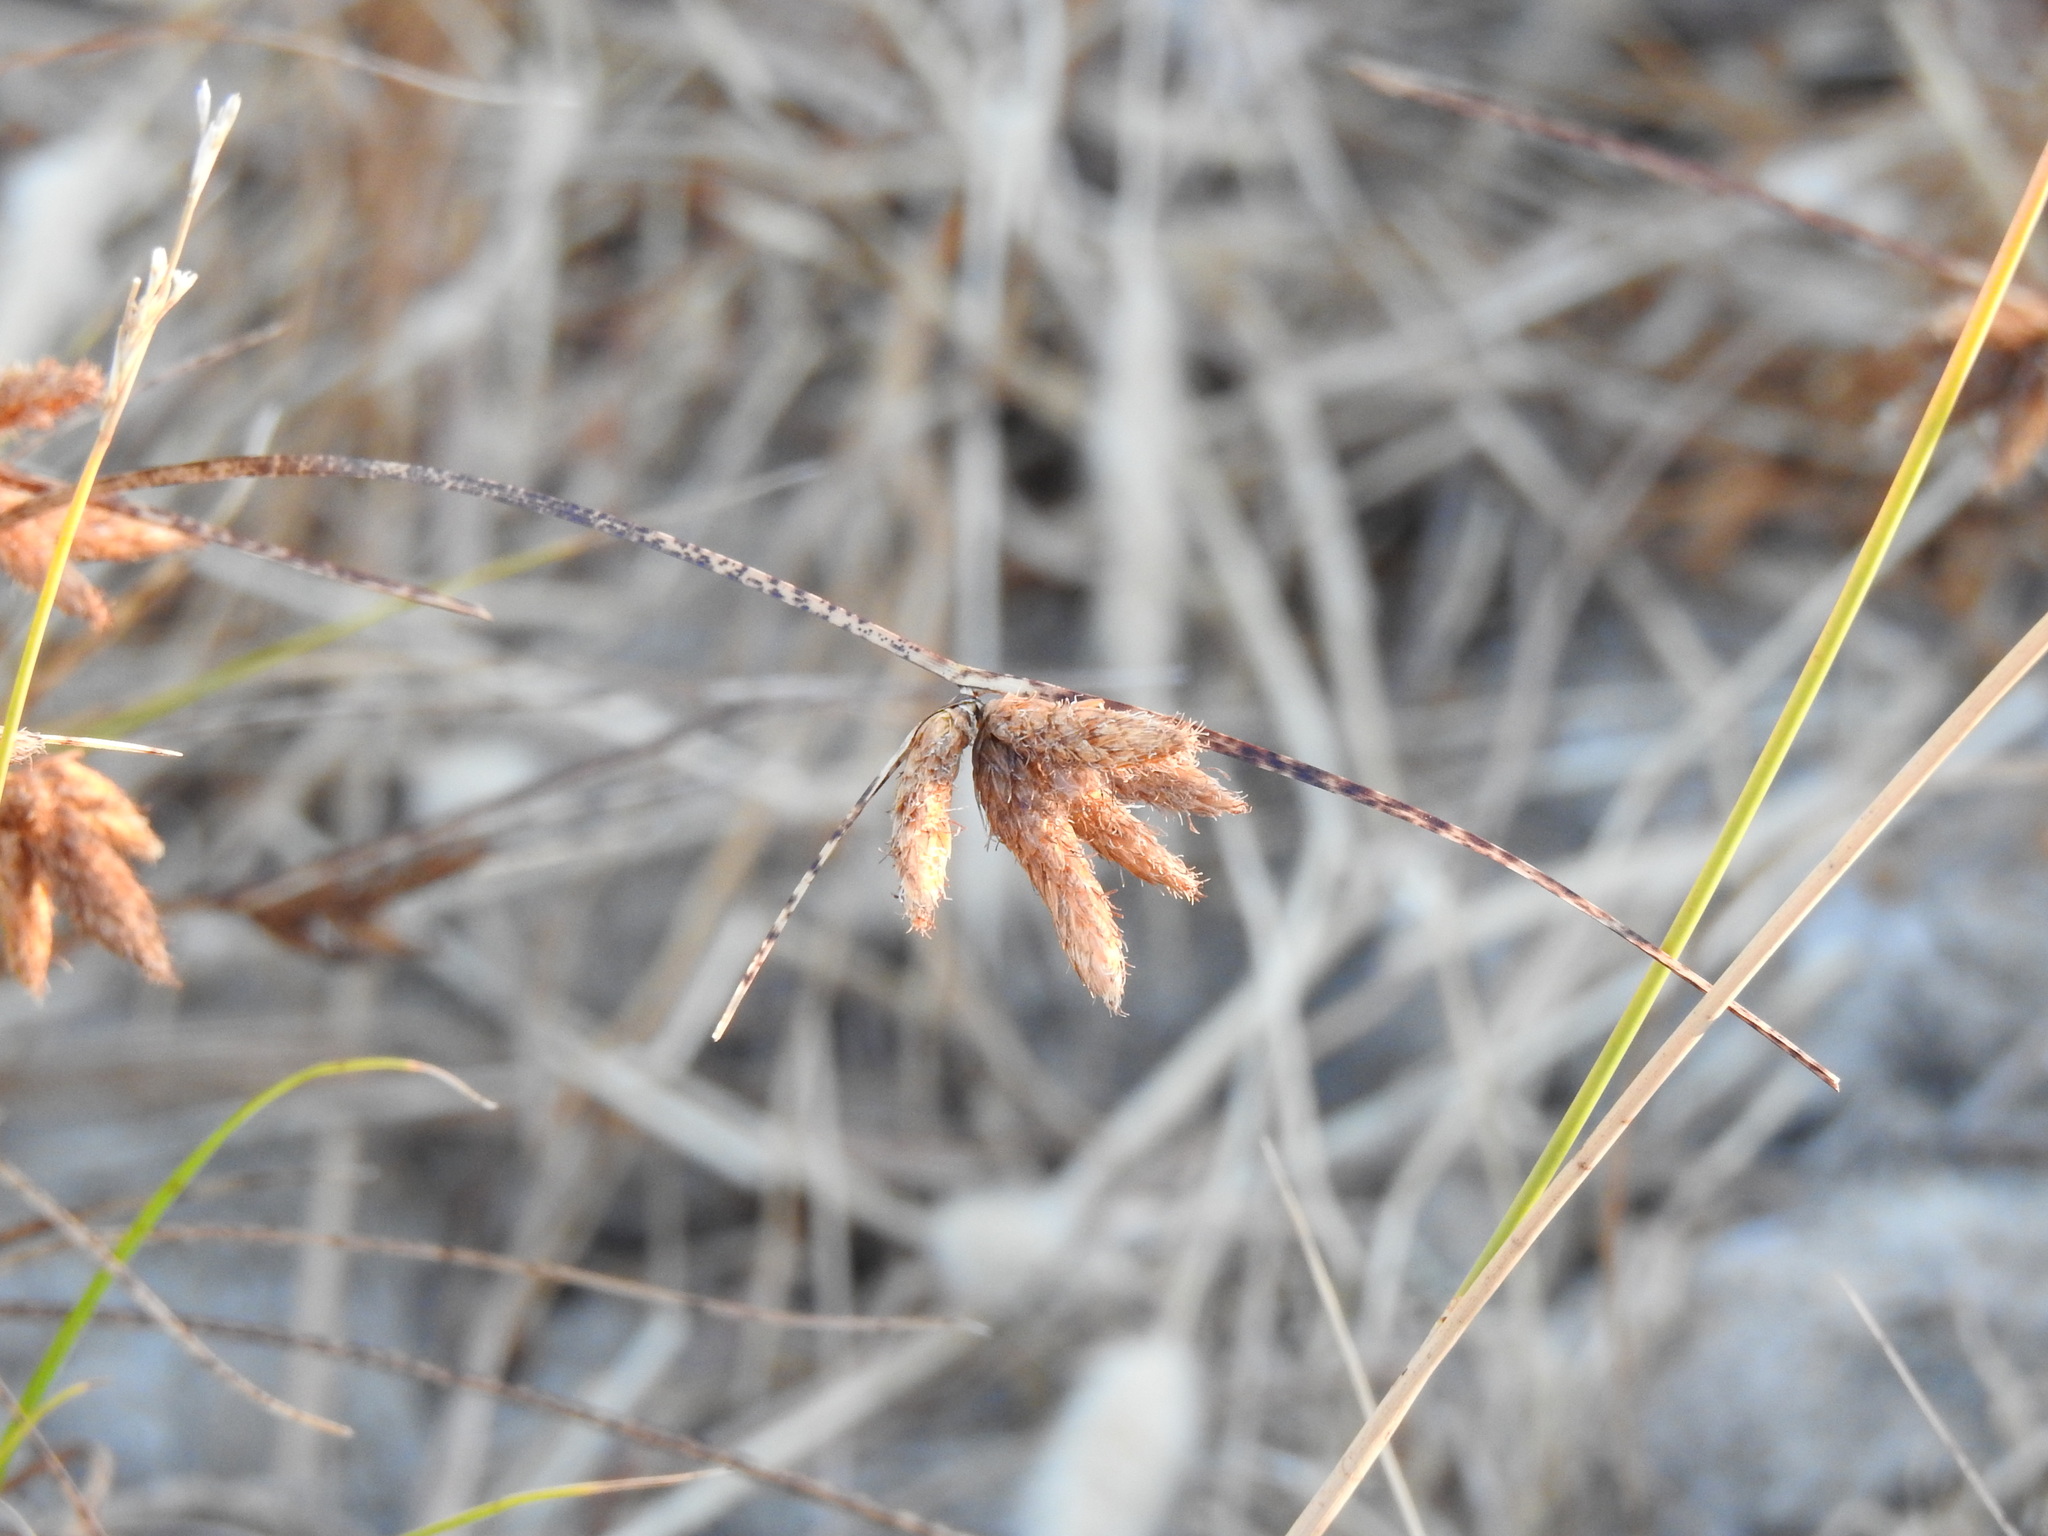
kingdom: Plantae
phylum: Tracheophyta
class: Liliopsida
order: Poales
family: Cyperaceae
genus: Bolboschoenus
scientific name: Bolboschoenus maritimus
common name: Sea club-rush
